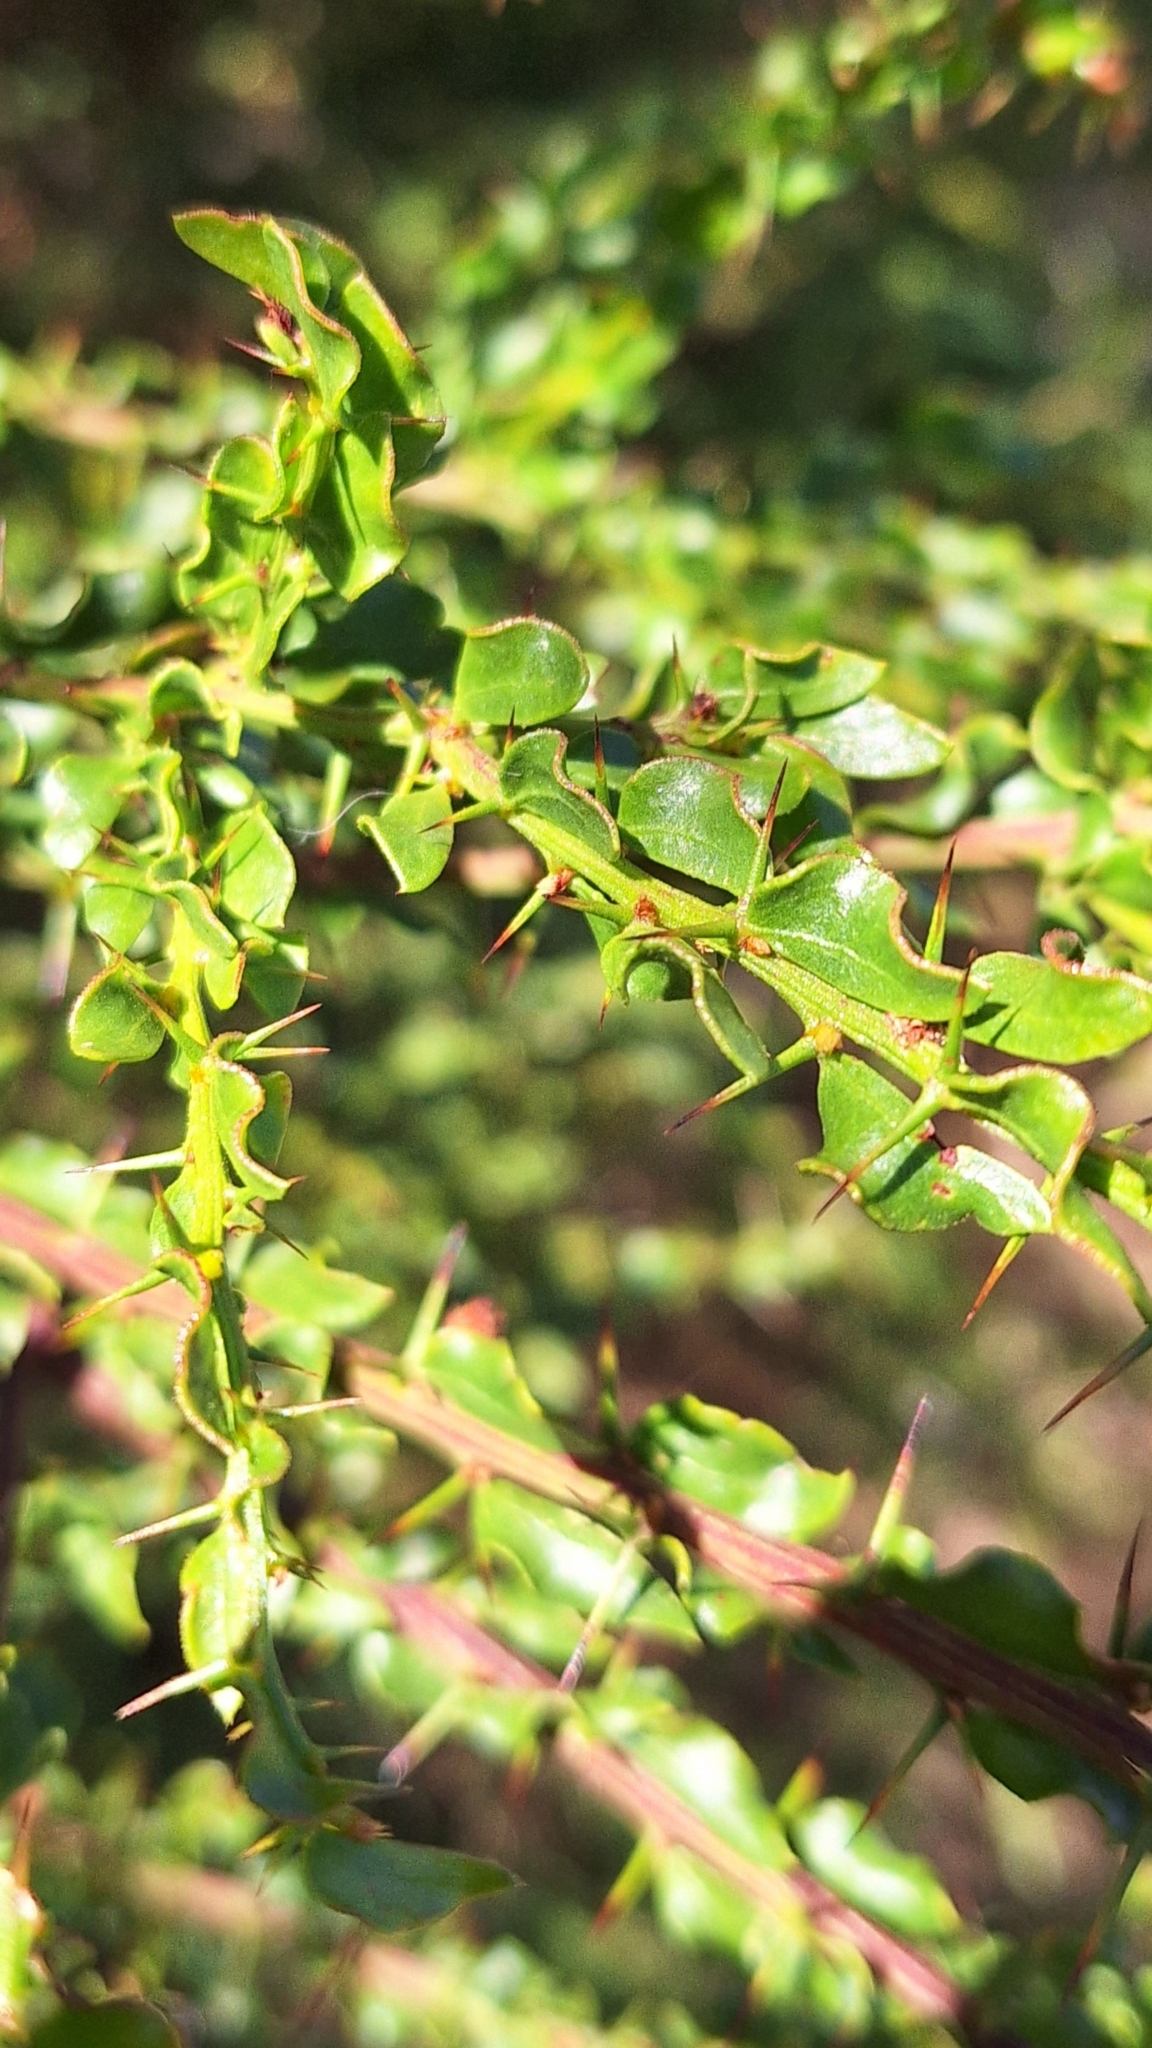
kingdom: Plantae
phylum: Tracheophyta
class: Magnoliopsida
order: Fabales
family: Fabaceae
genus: Acacia
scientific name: Acacia paradoxa
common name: Paradox acacia
